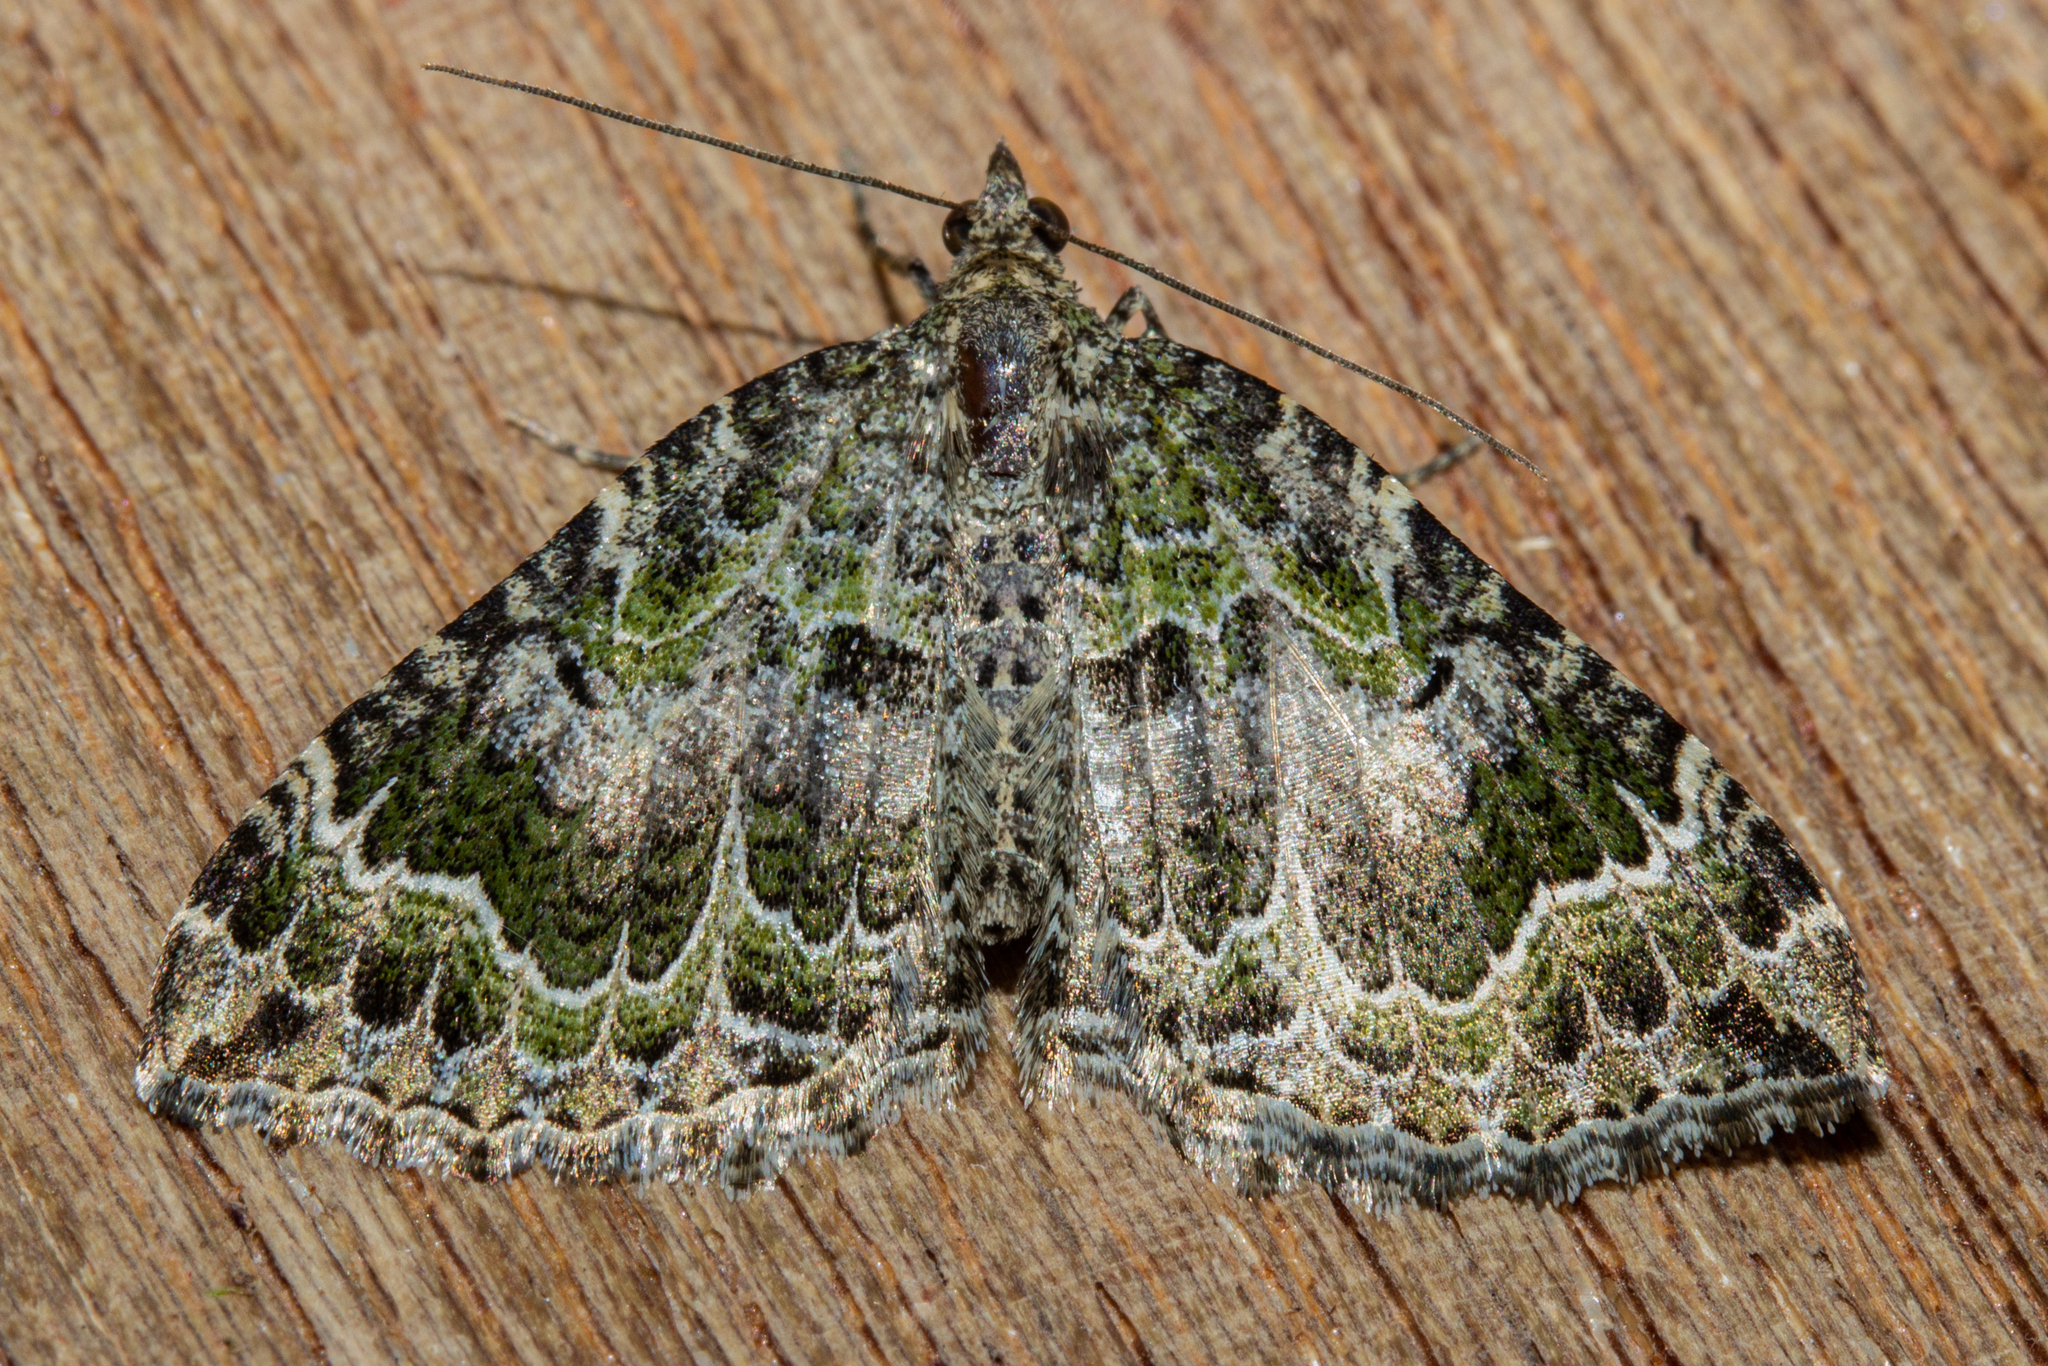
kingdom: Animalia
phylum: Arthropoda
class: Insecta
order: Lepidoptera
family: Geometridae
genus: Hydriomena
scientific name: Hydriomena rixata
